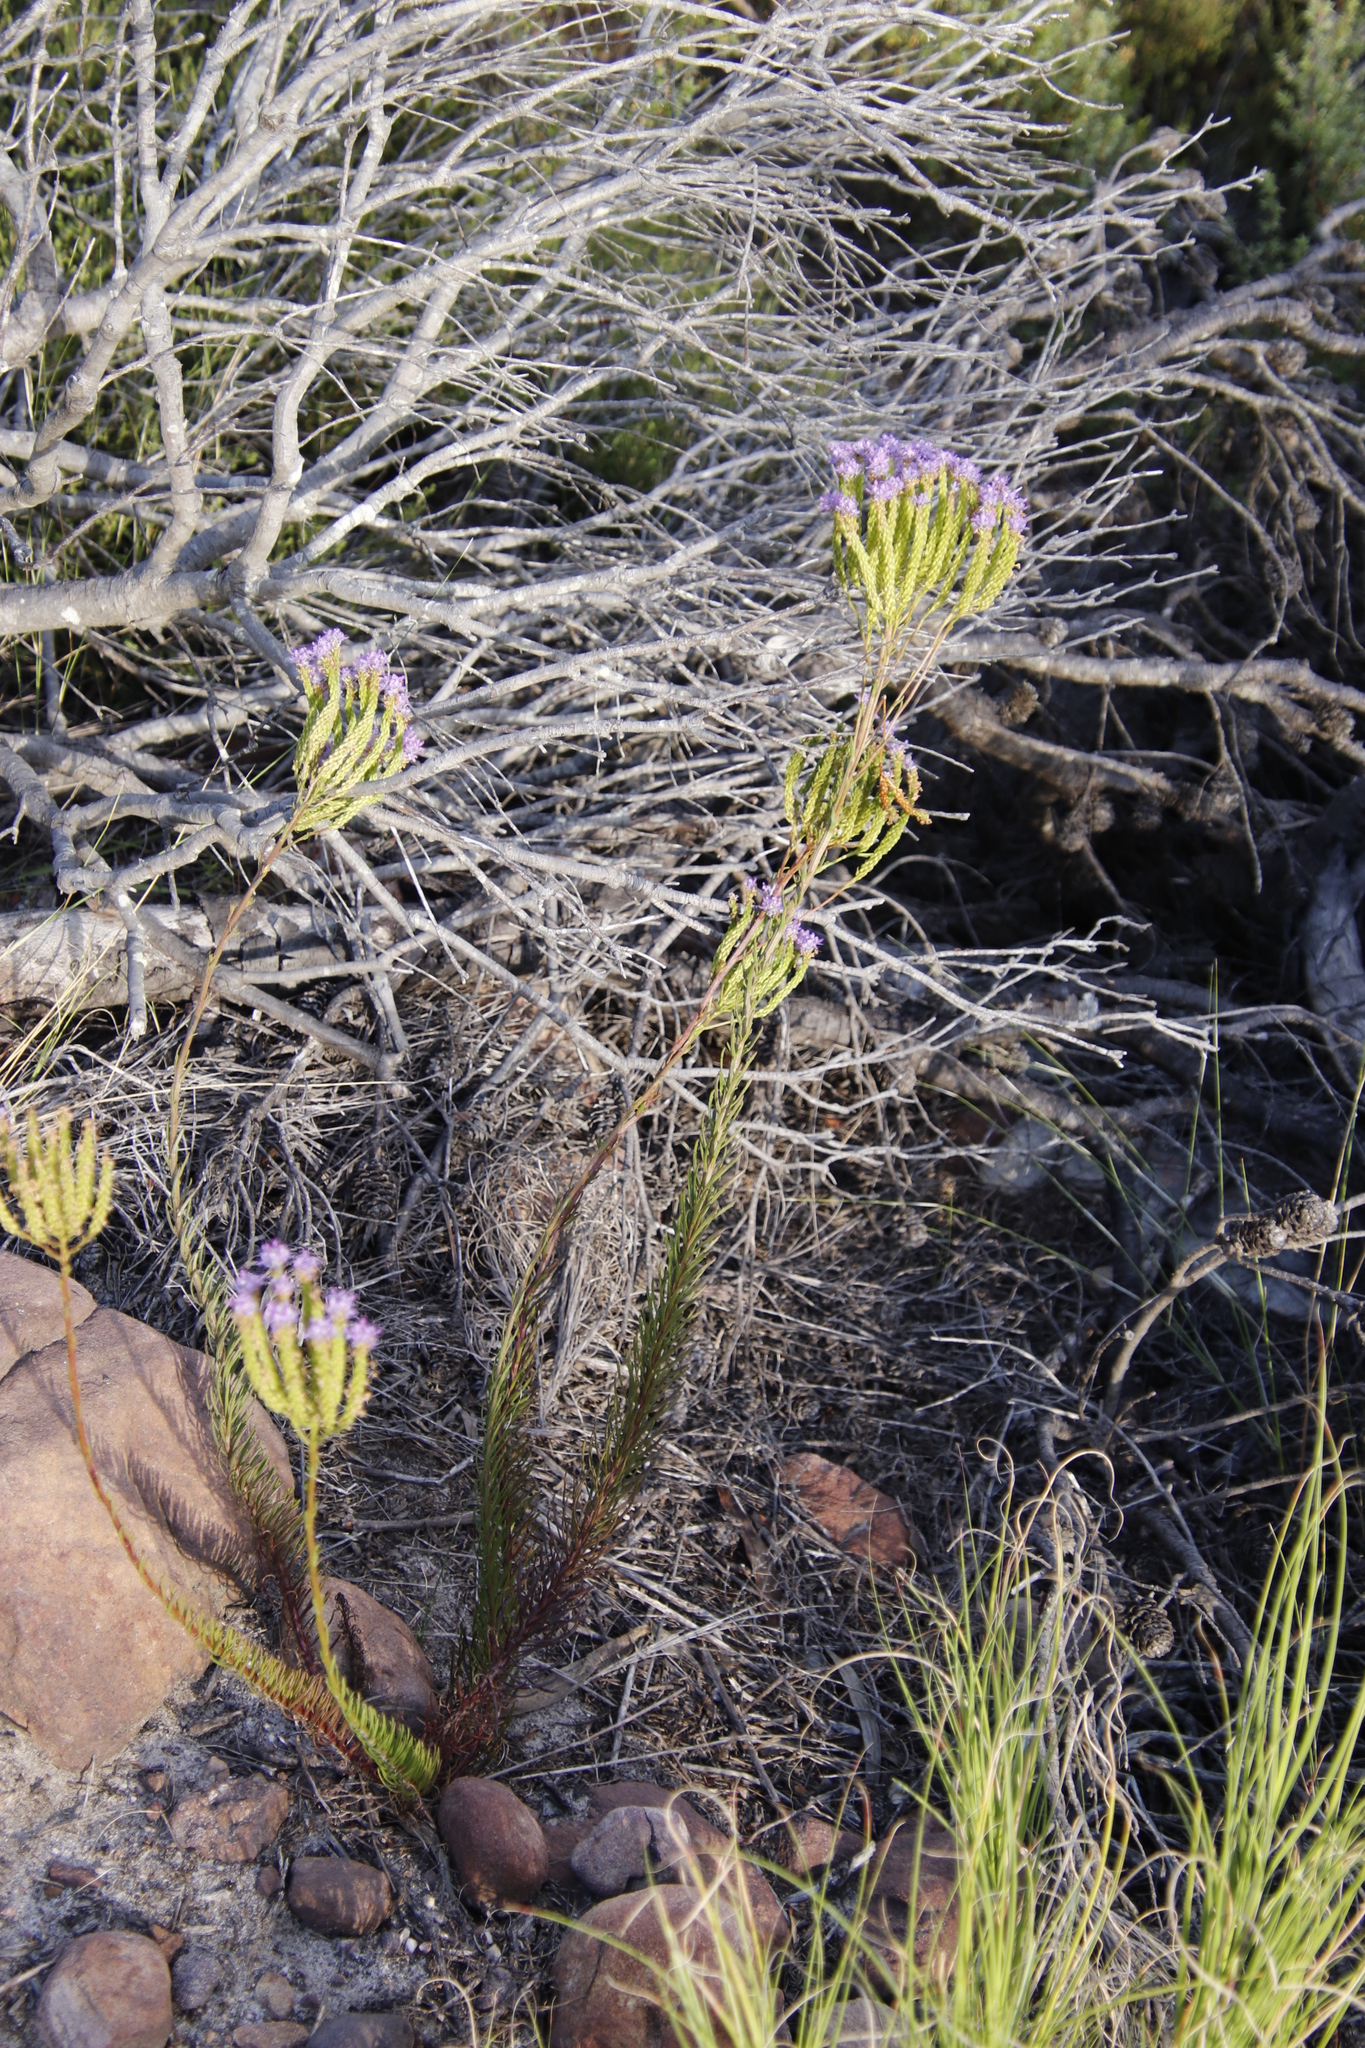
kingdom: Plantae
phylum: Tracheophyta
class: Magnoliopsida
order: Lamiales
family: Scrophulariaceae
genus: Pseudoselago
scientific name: Pseudoselago spuria
